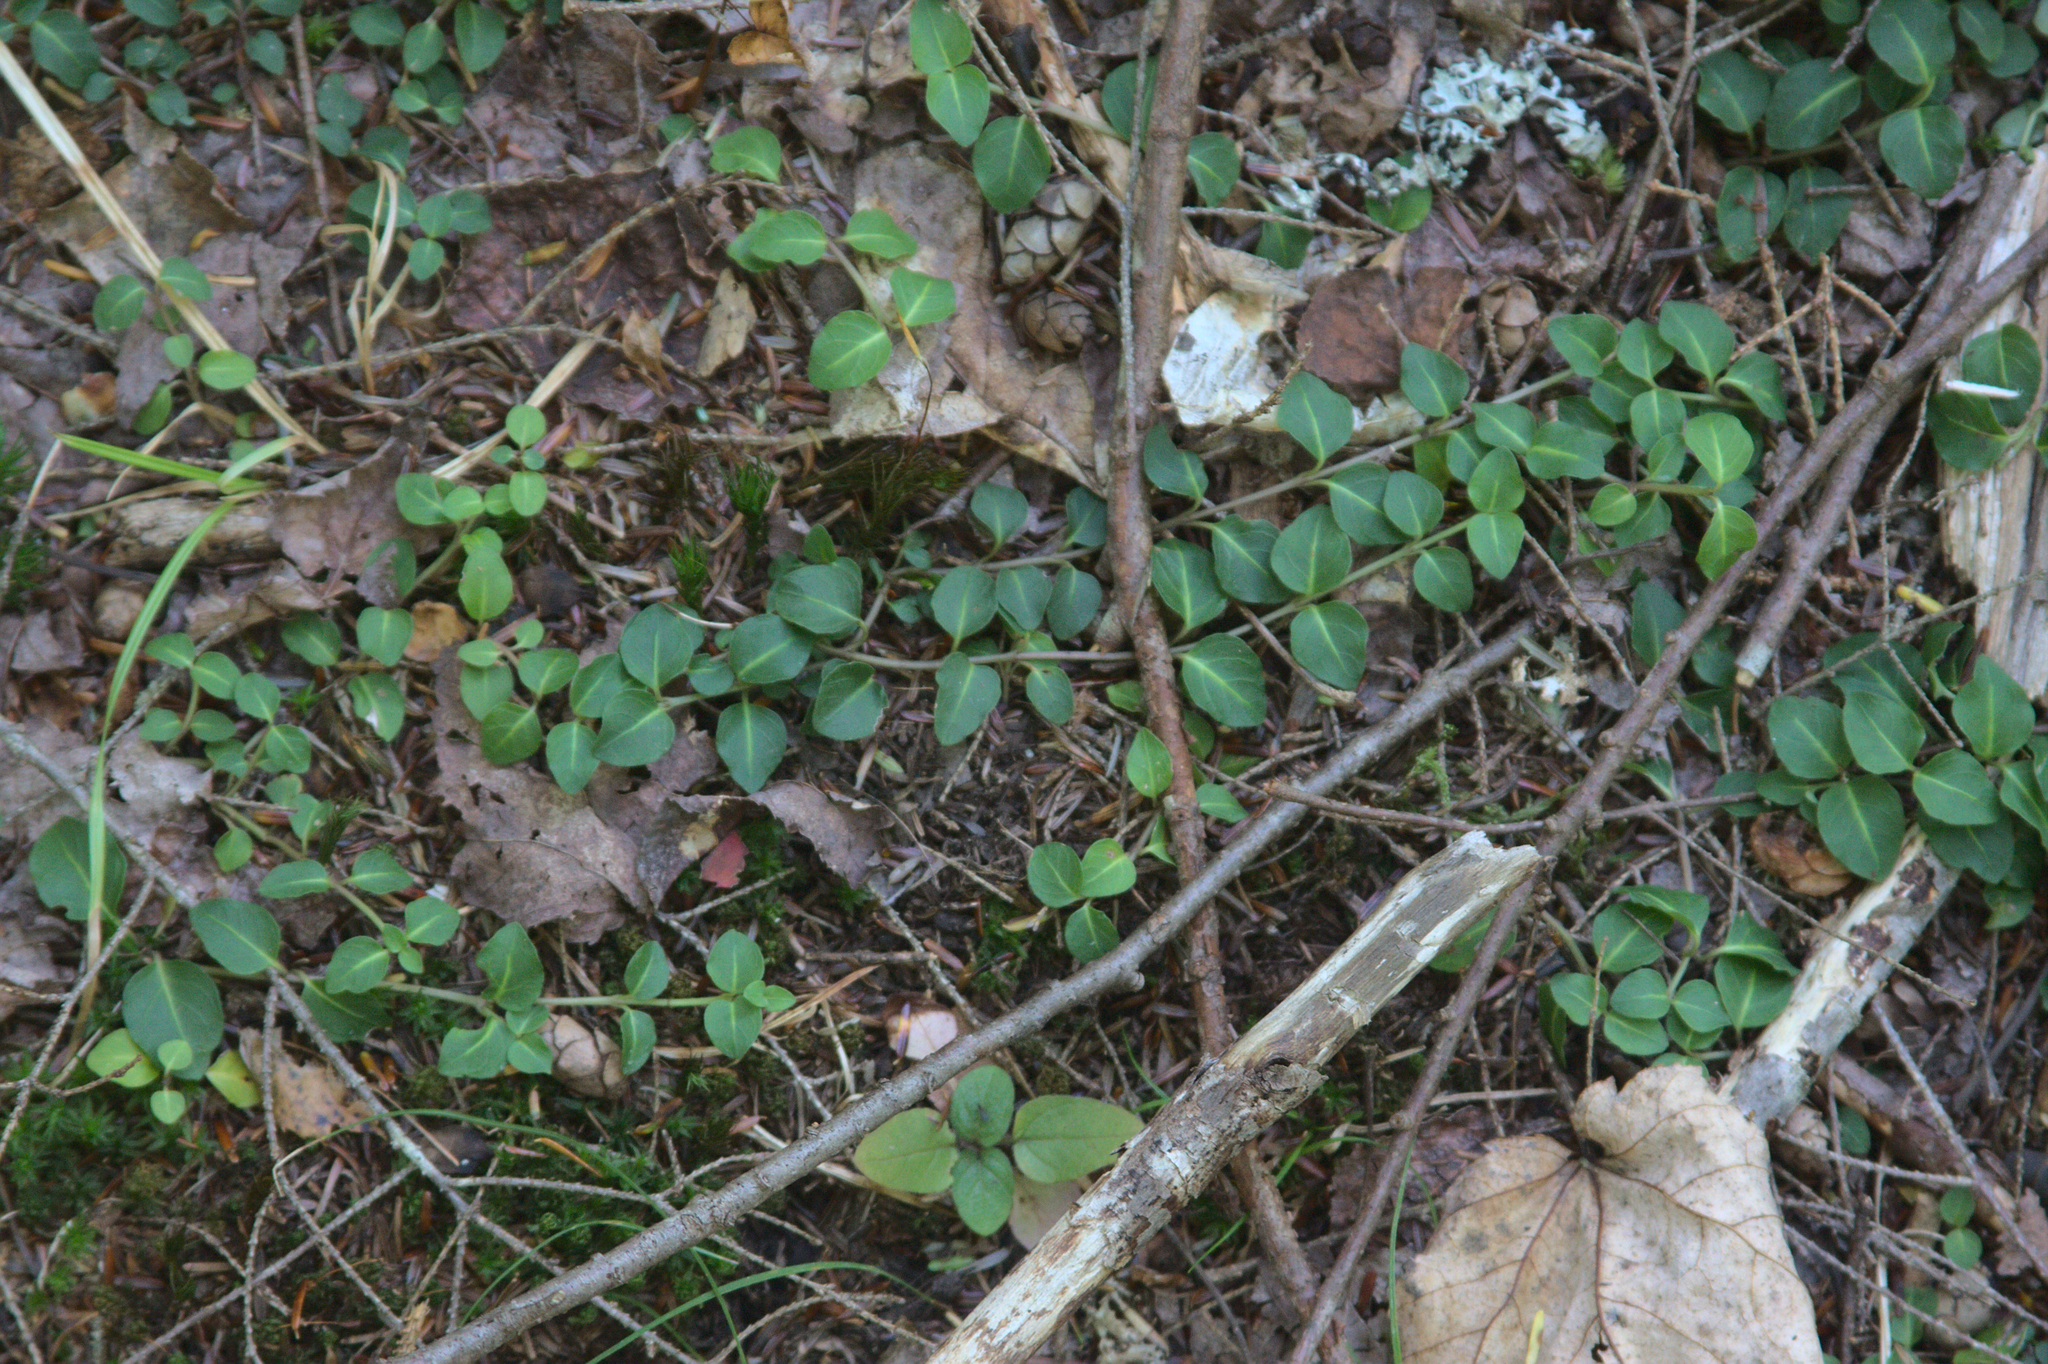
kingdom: Plantae
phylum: Tracheophyta
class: Magnoliopsida
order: Gentianales
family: Rubiaceae
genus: Mitchella
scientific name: Mitchella repens
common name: Partridge-berry
